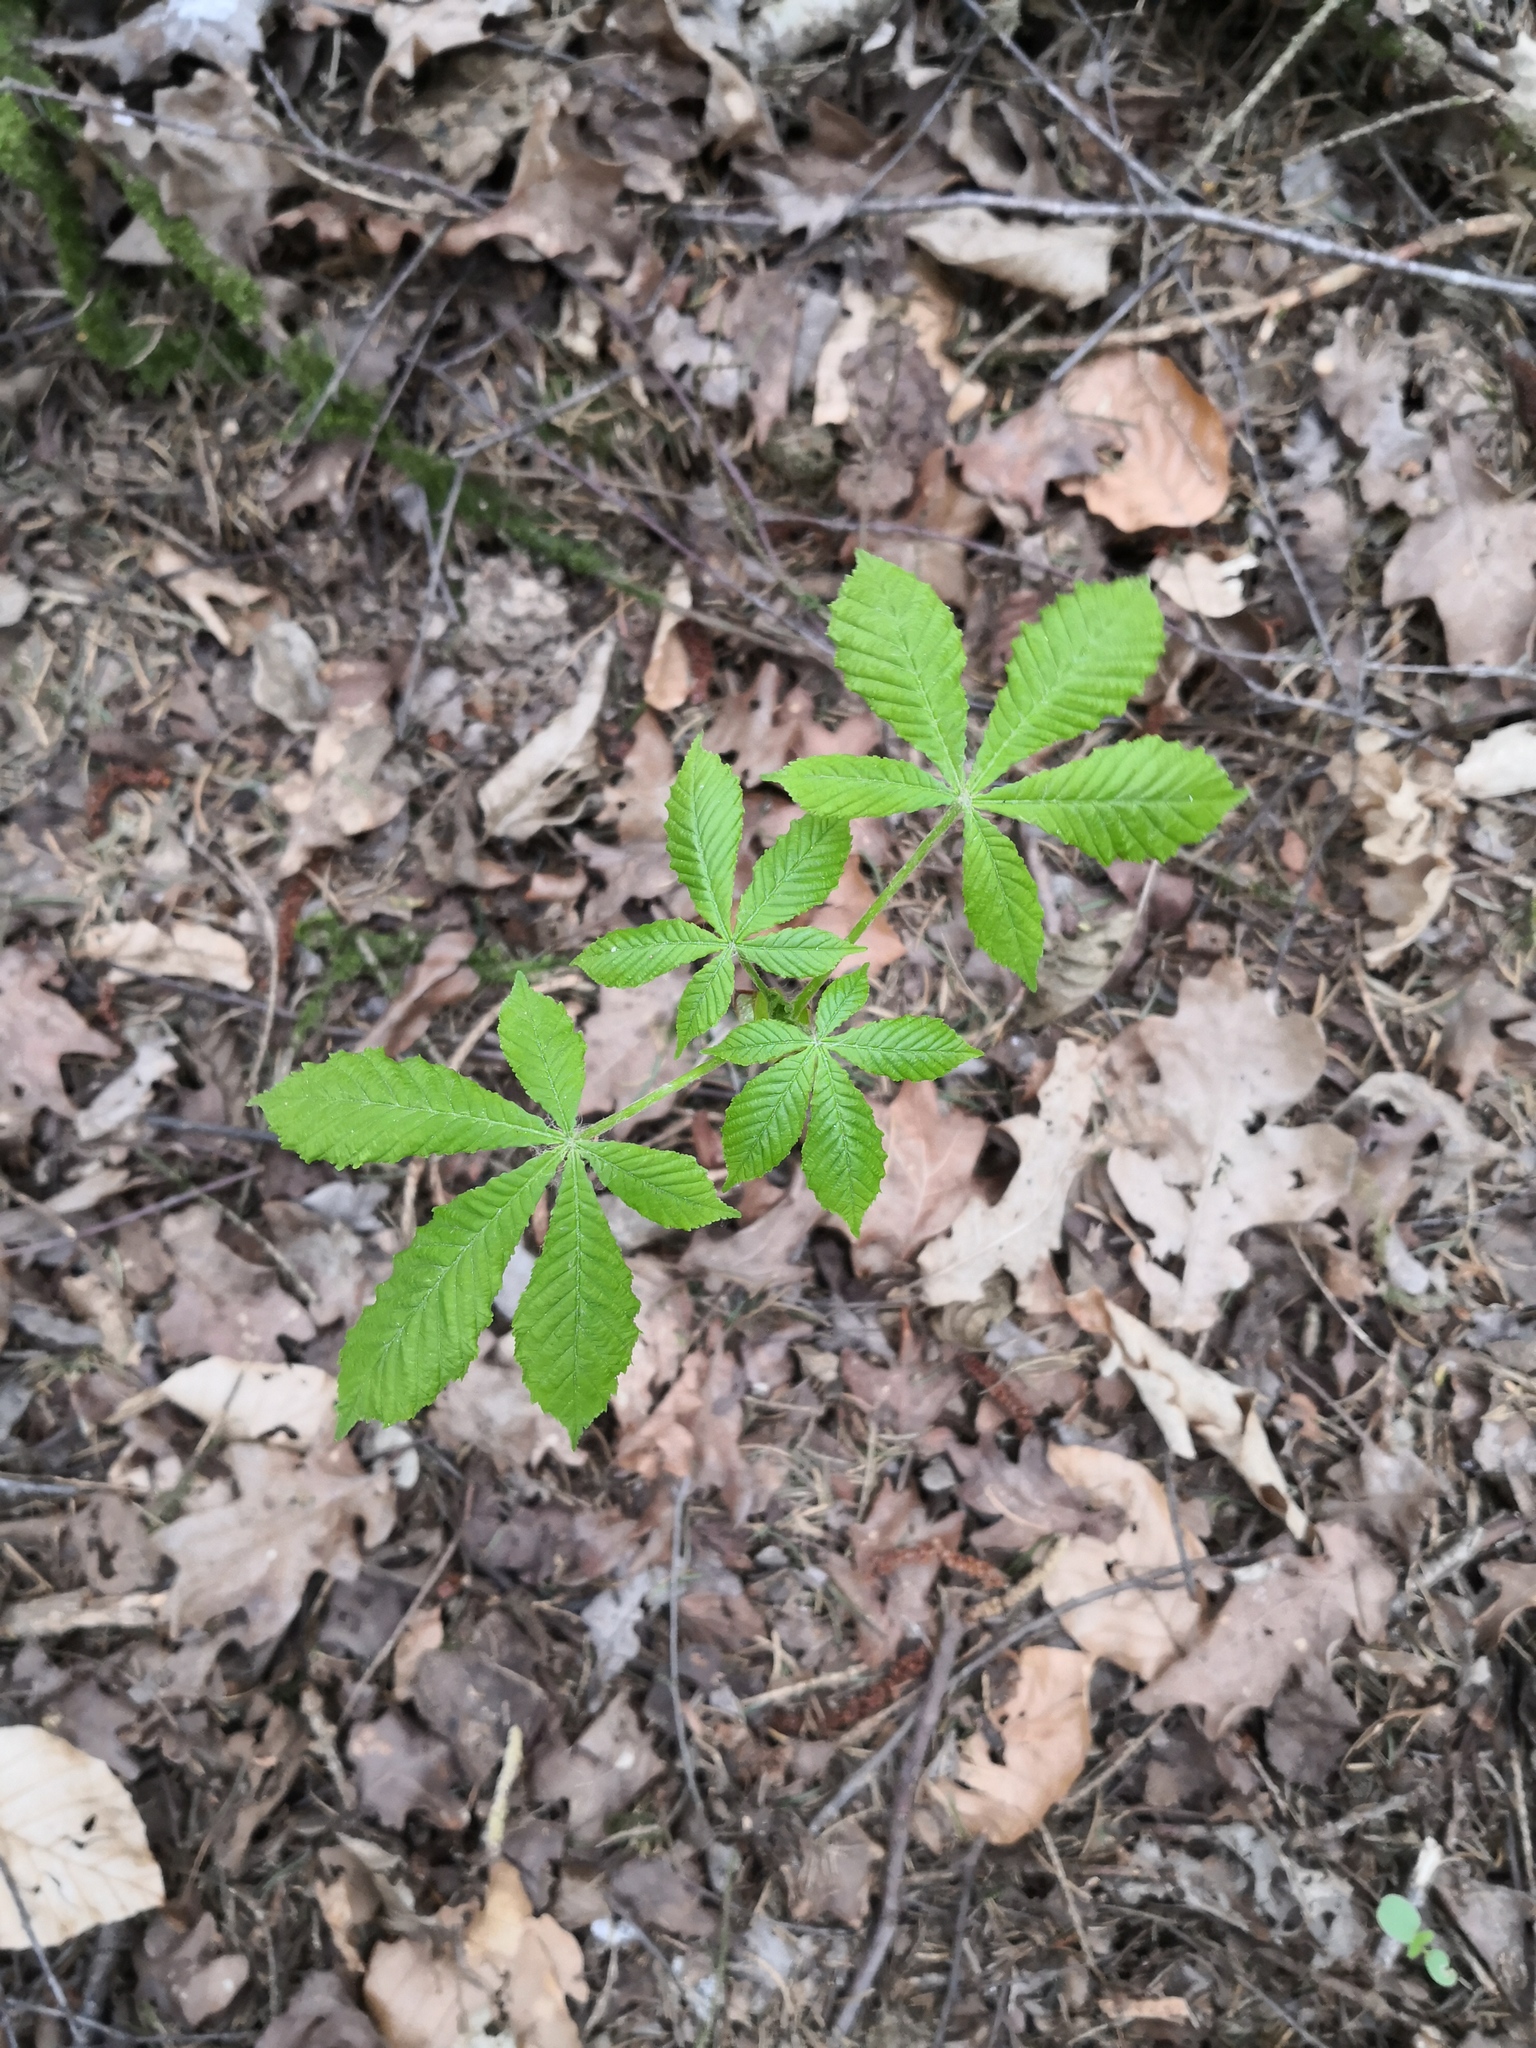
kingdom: Plantae
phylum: Tracheophyta
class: Magnoliopsida
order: Sapindales
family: Sapindaceae
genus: Aesculus
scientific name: Aesculus hippocastanum
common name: Horse-chestnut
